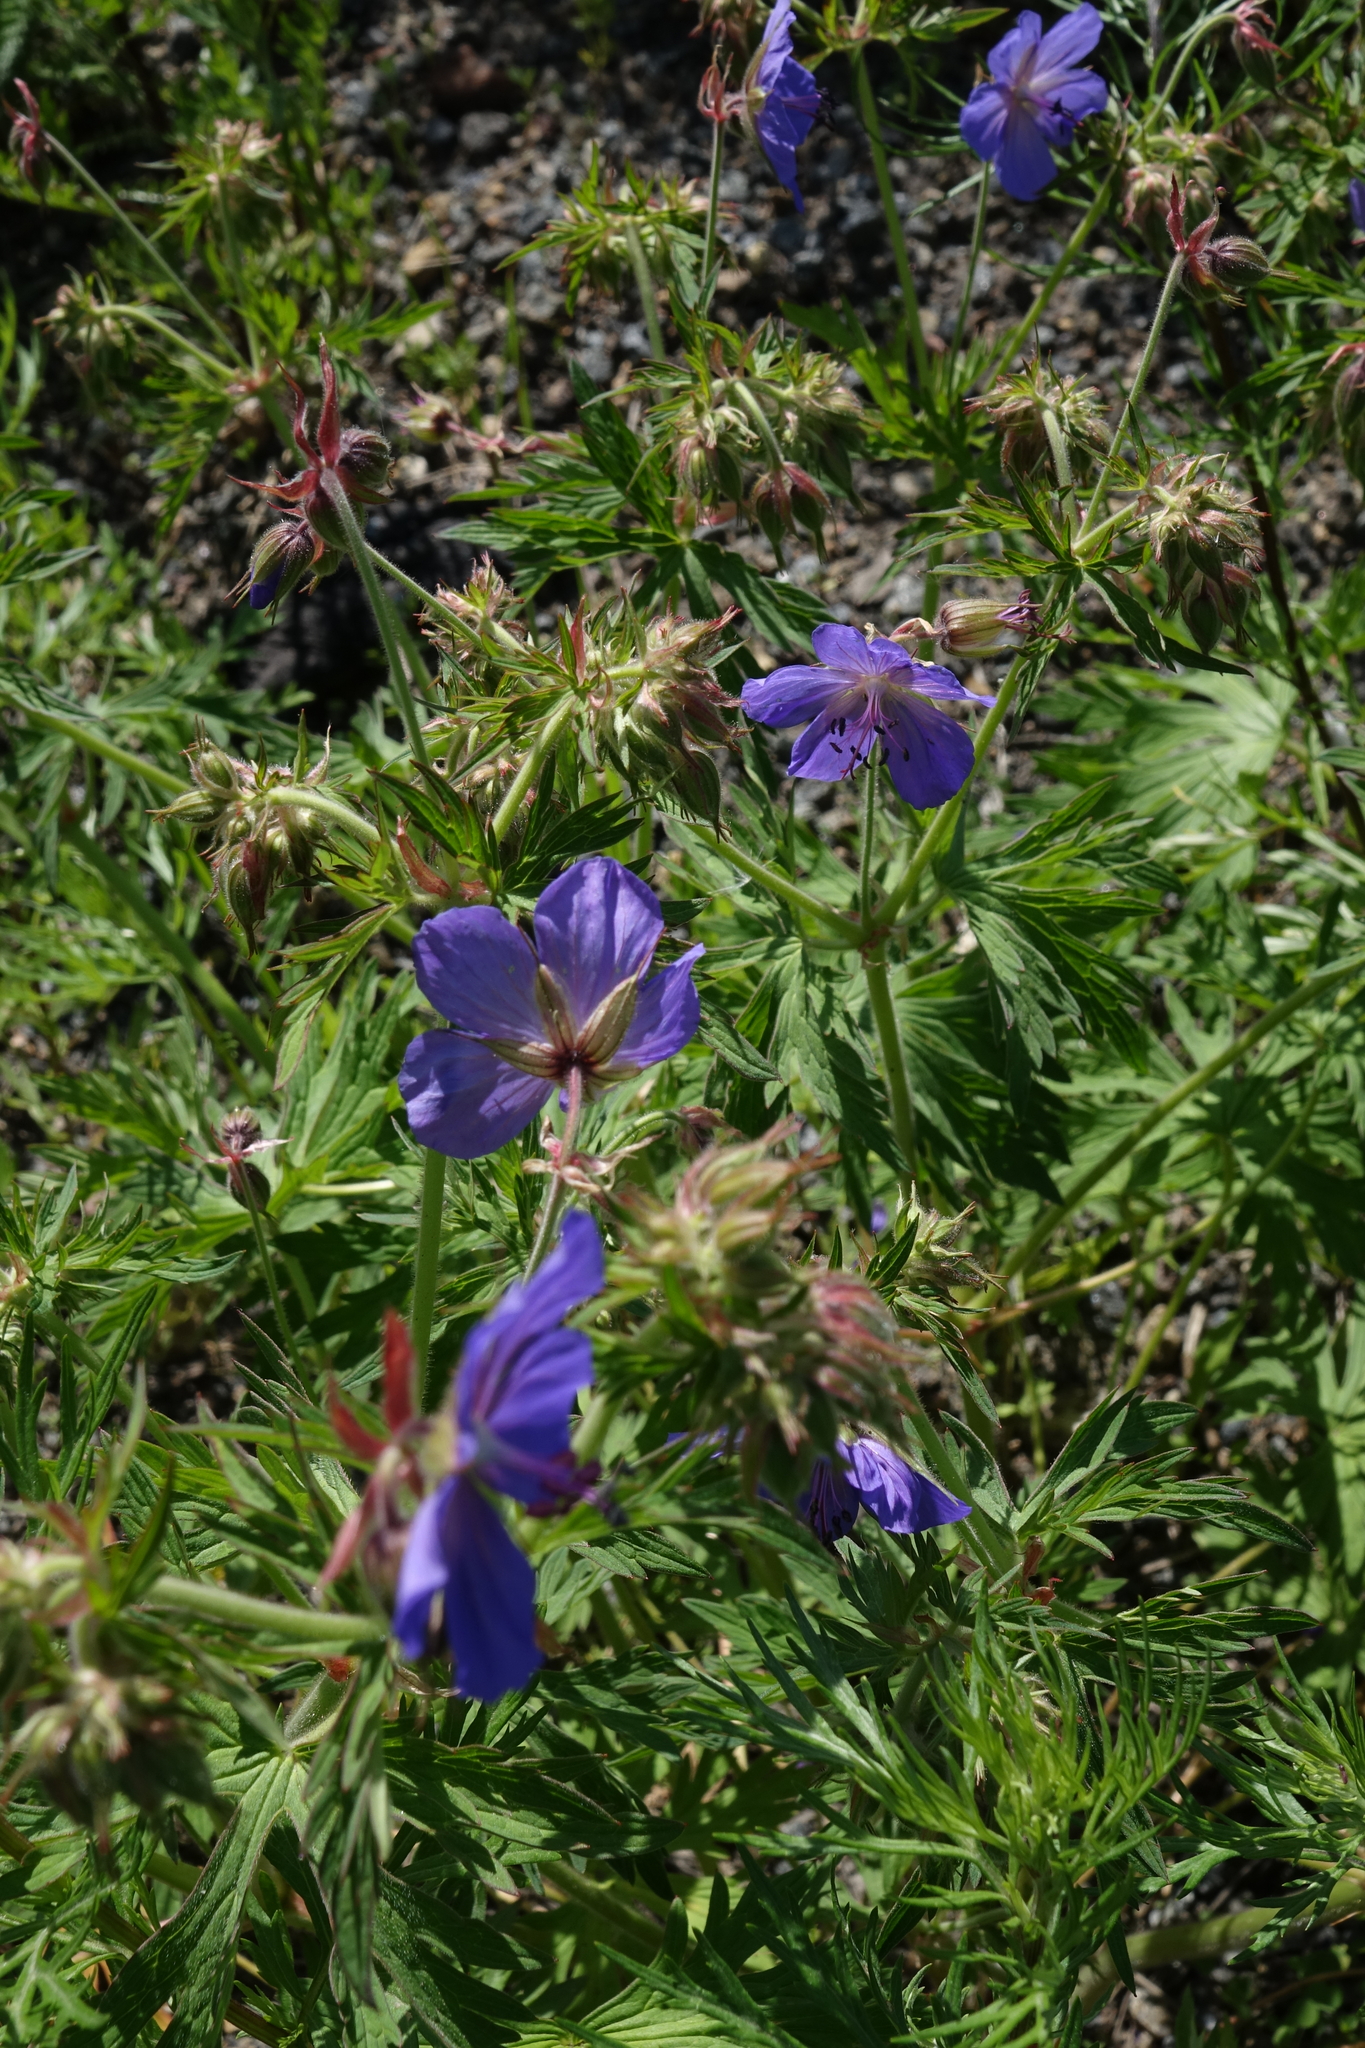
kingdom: Plantae
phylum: Tracheophyta
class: Magnoliopsida
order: Geraniales
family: Geraniaceae
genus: Geranium
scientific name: Geranium pratense
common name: Meadow crane's-bill
